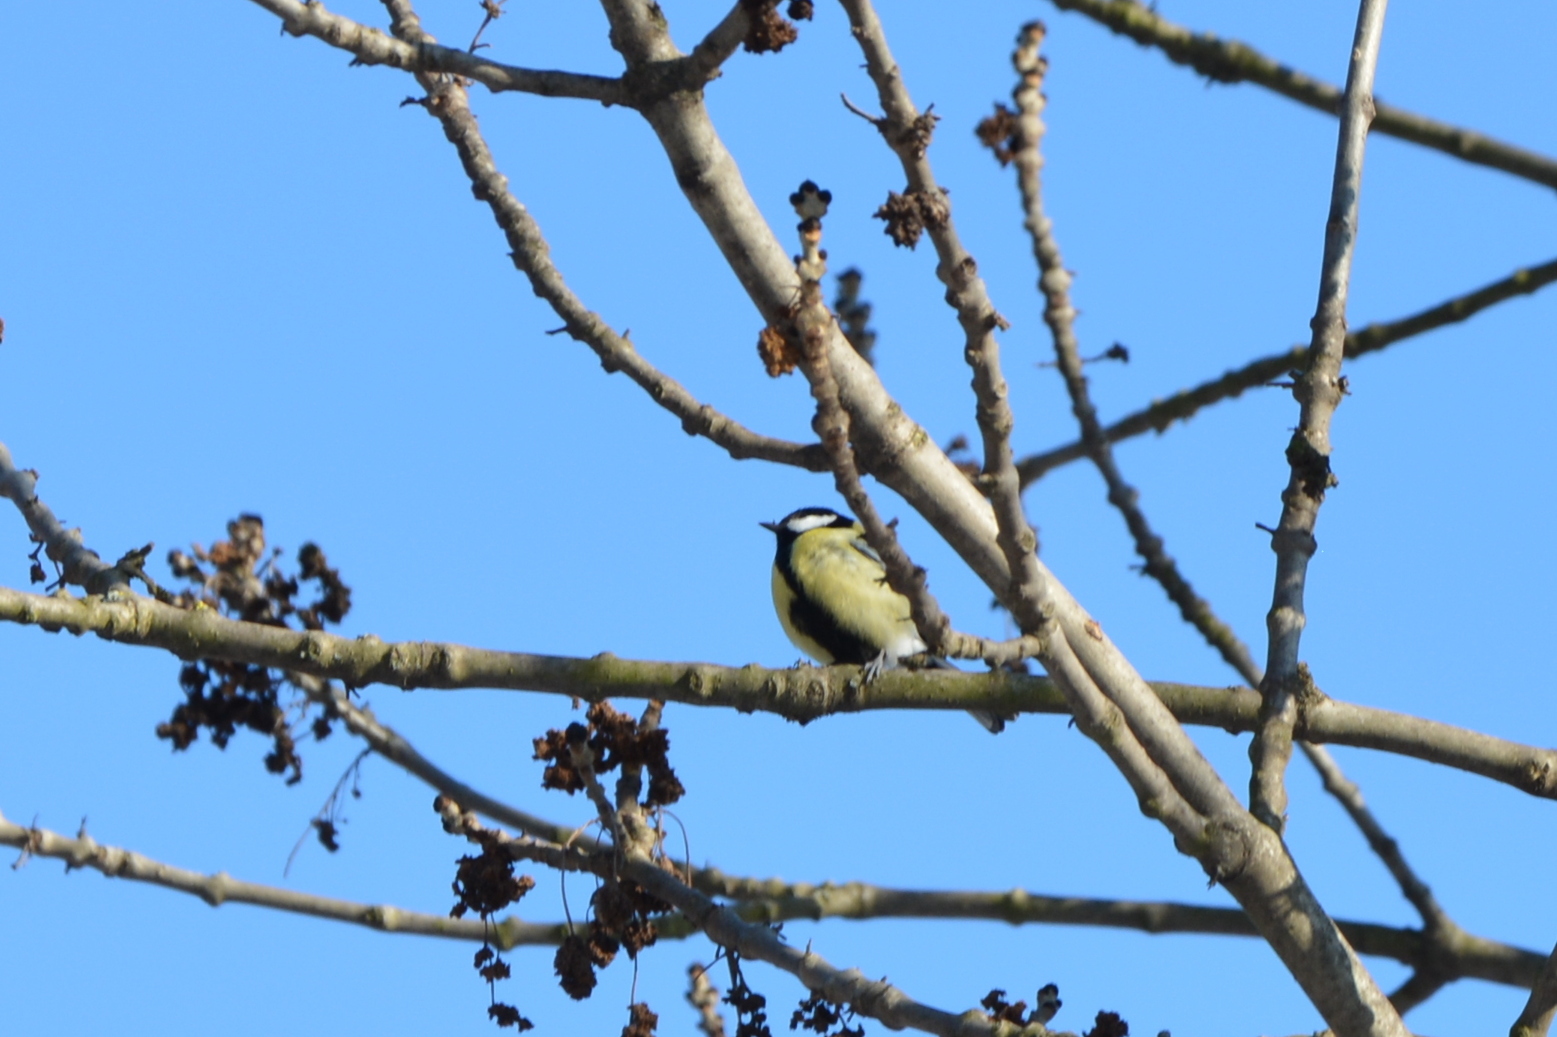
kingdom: Animalia
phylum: Chordata
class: Aves
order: Passeriformes
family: Paridae
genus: Parus
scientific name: Parus major
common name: Great tit
